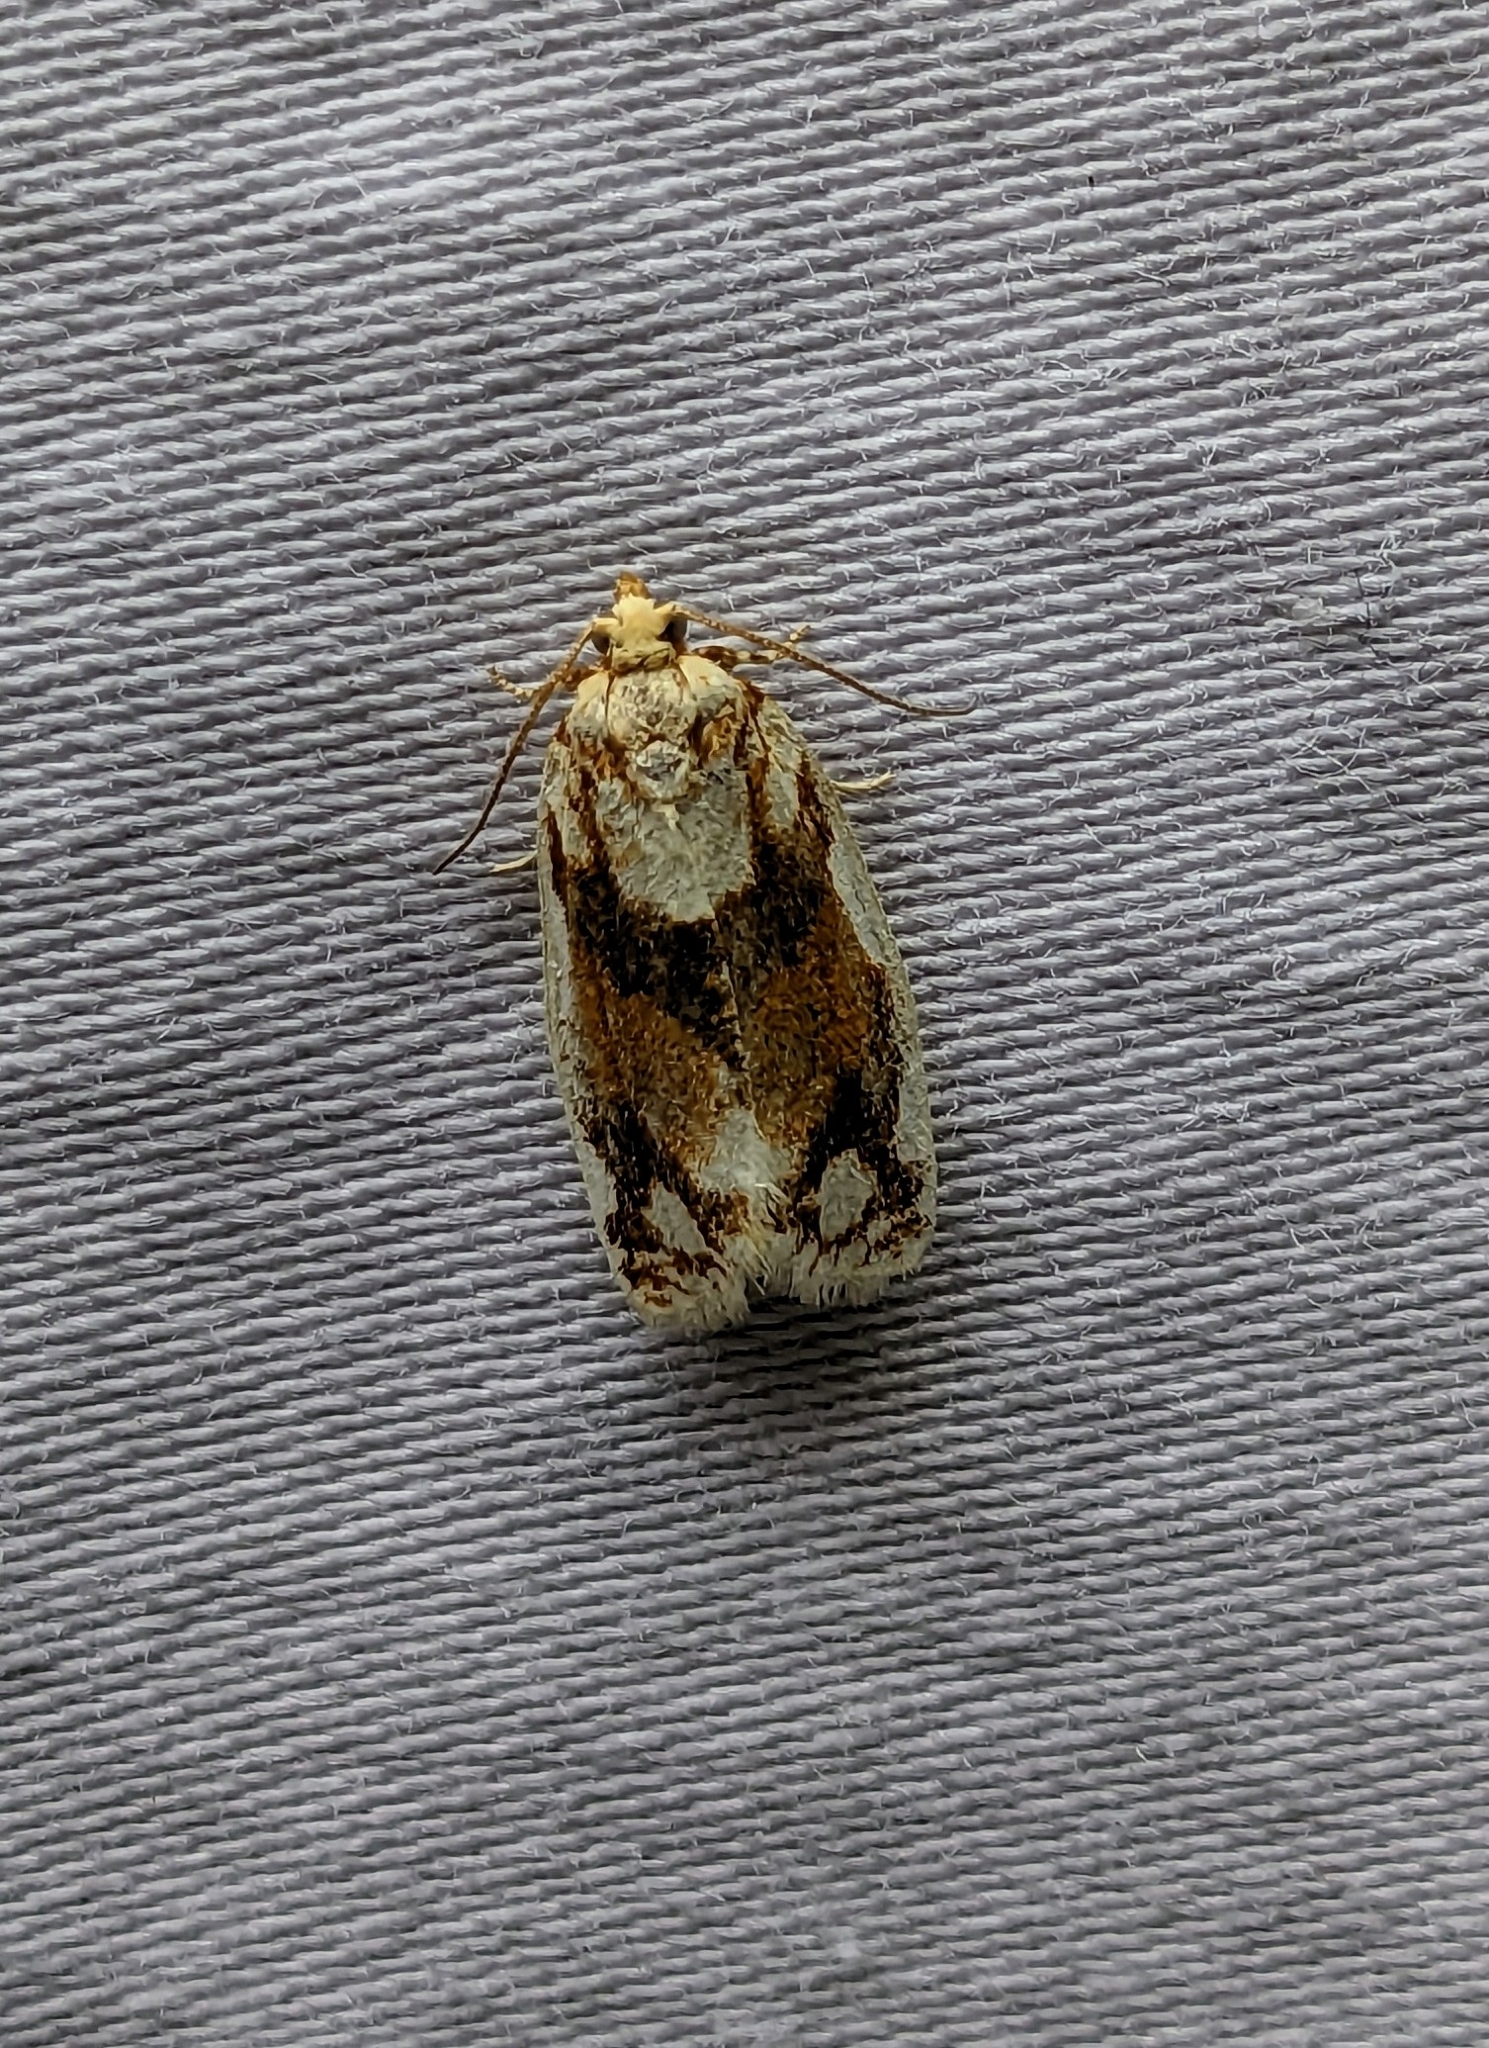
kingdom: Animalia
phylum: Arthropoda
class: Insecta
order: Lepidoptera
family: Tortricidae
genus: Argyrotaenia
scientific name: Argyrotaenia alisellana
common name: White-spotted leafroller moth
